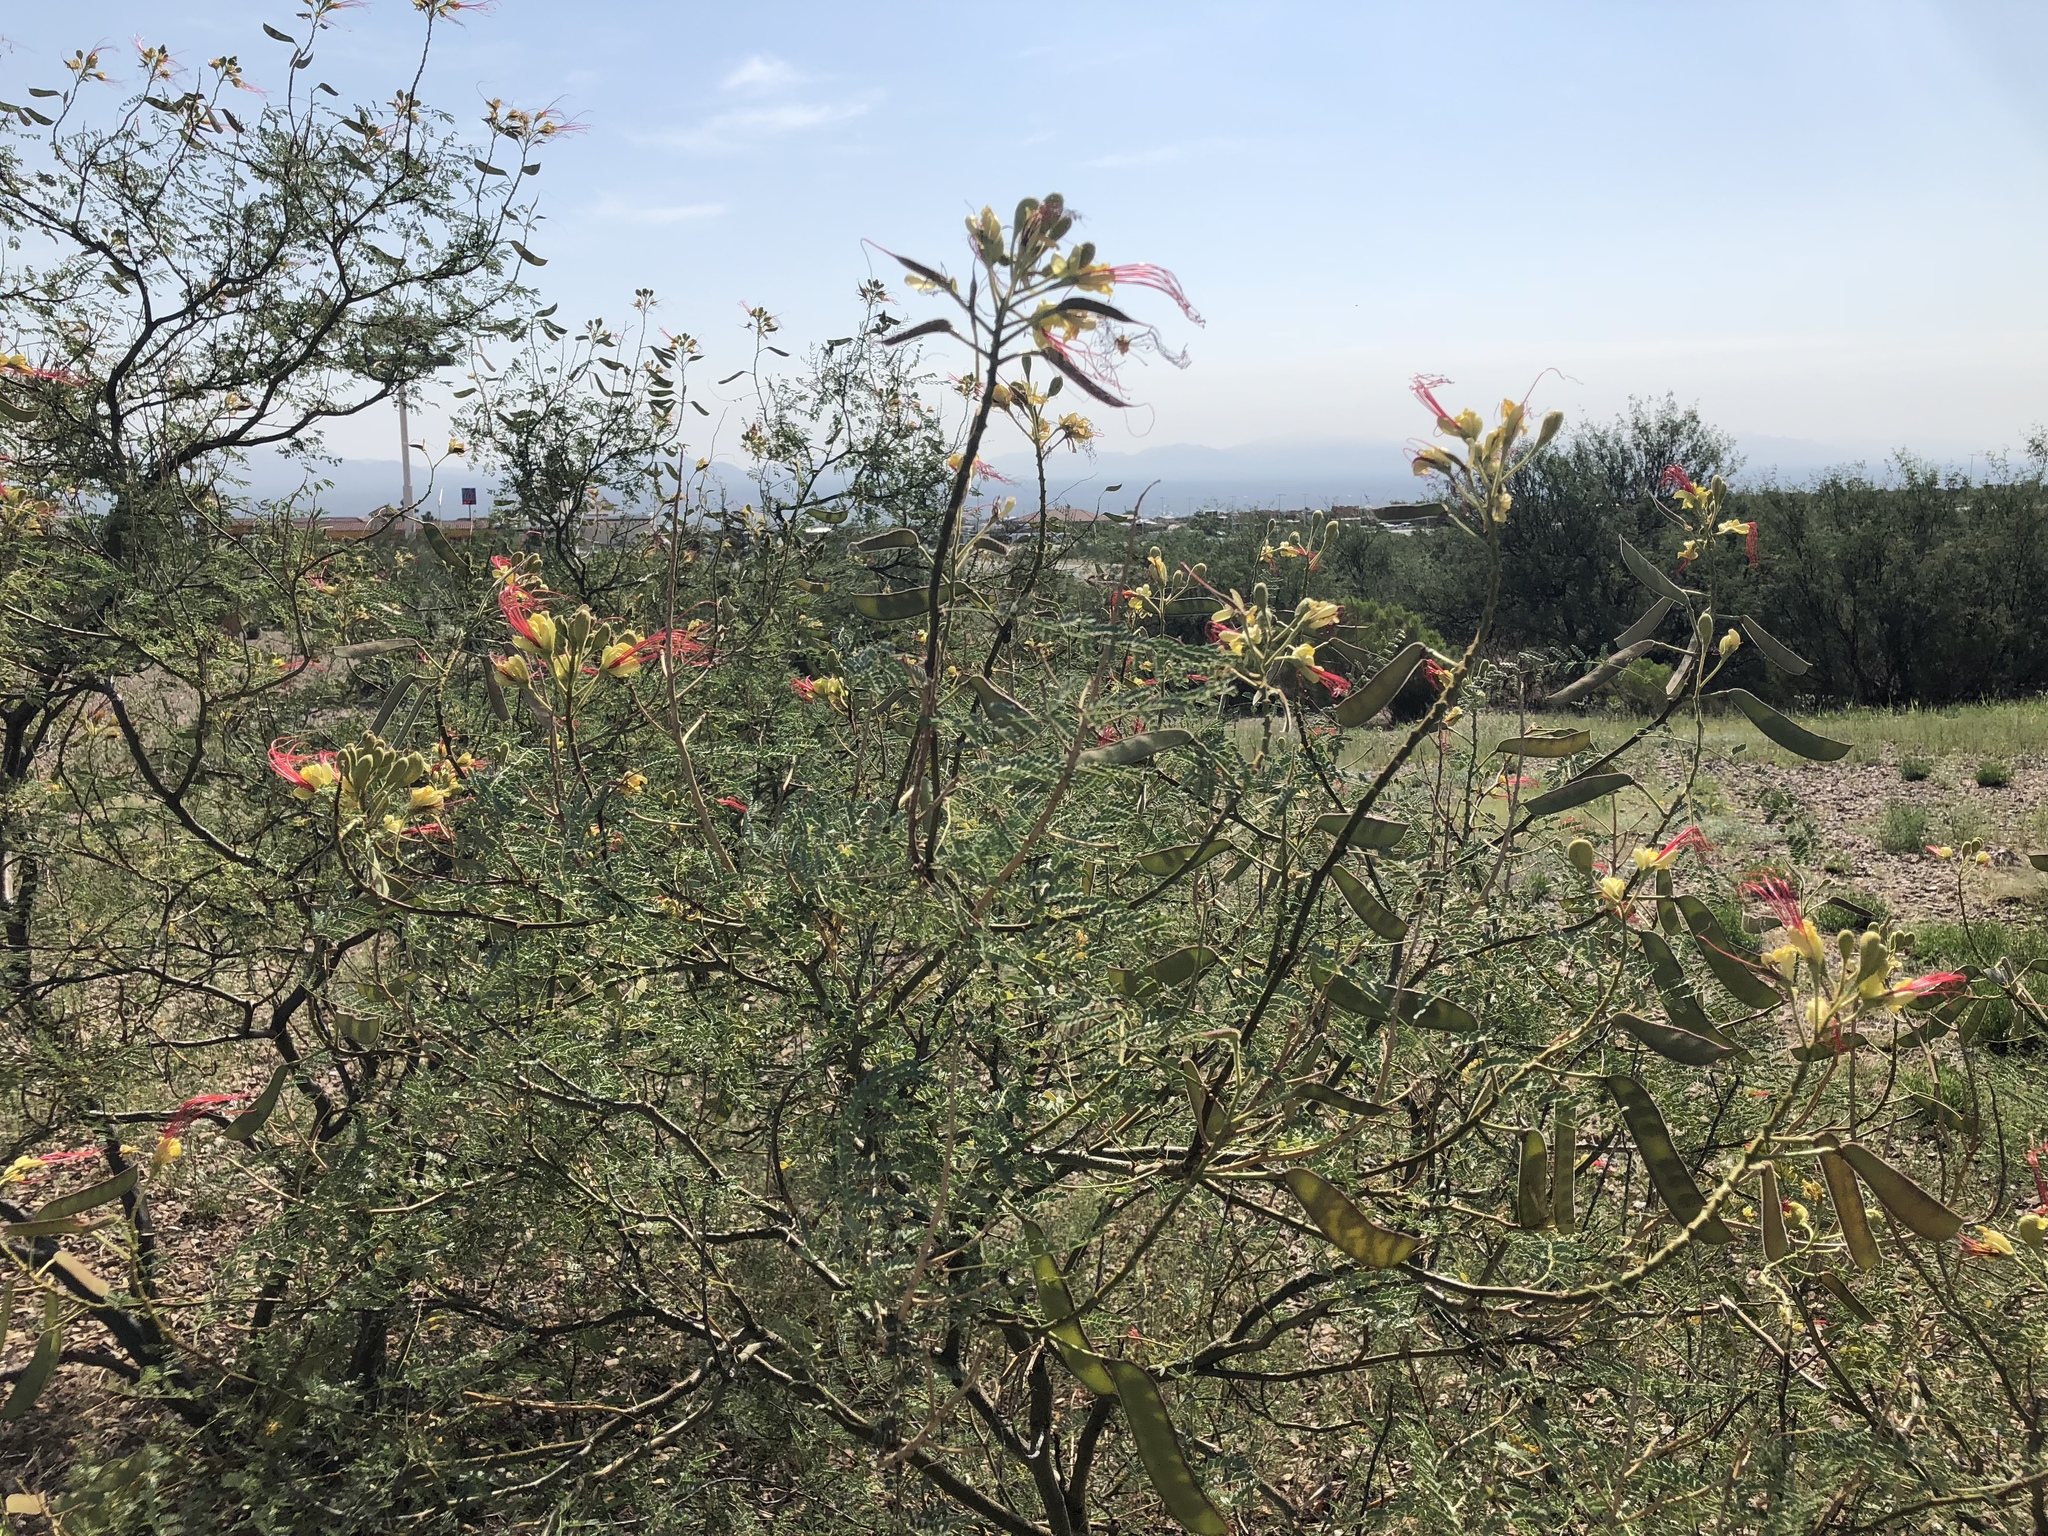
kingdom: Plantae
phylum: Tracheophyta
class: Magnoliopsida
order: Fabales
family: Fabaceae
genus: Erythrostemon
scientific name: Erythrostemon gilliesii
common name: Bird-of-paradise shrub
